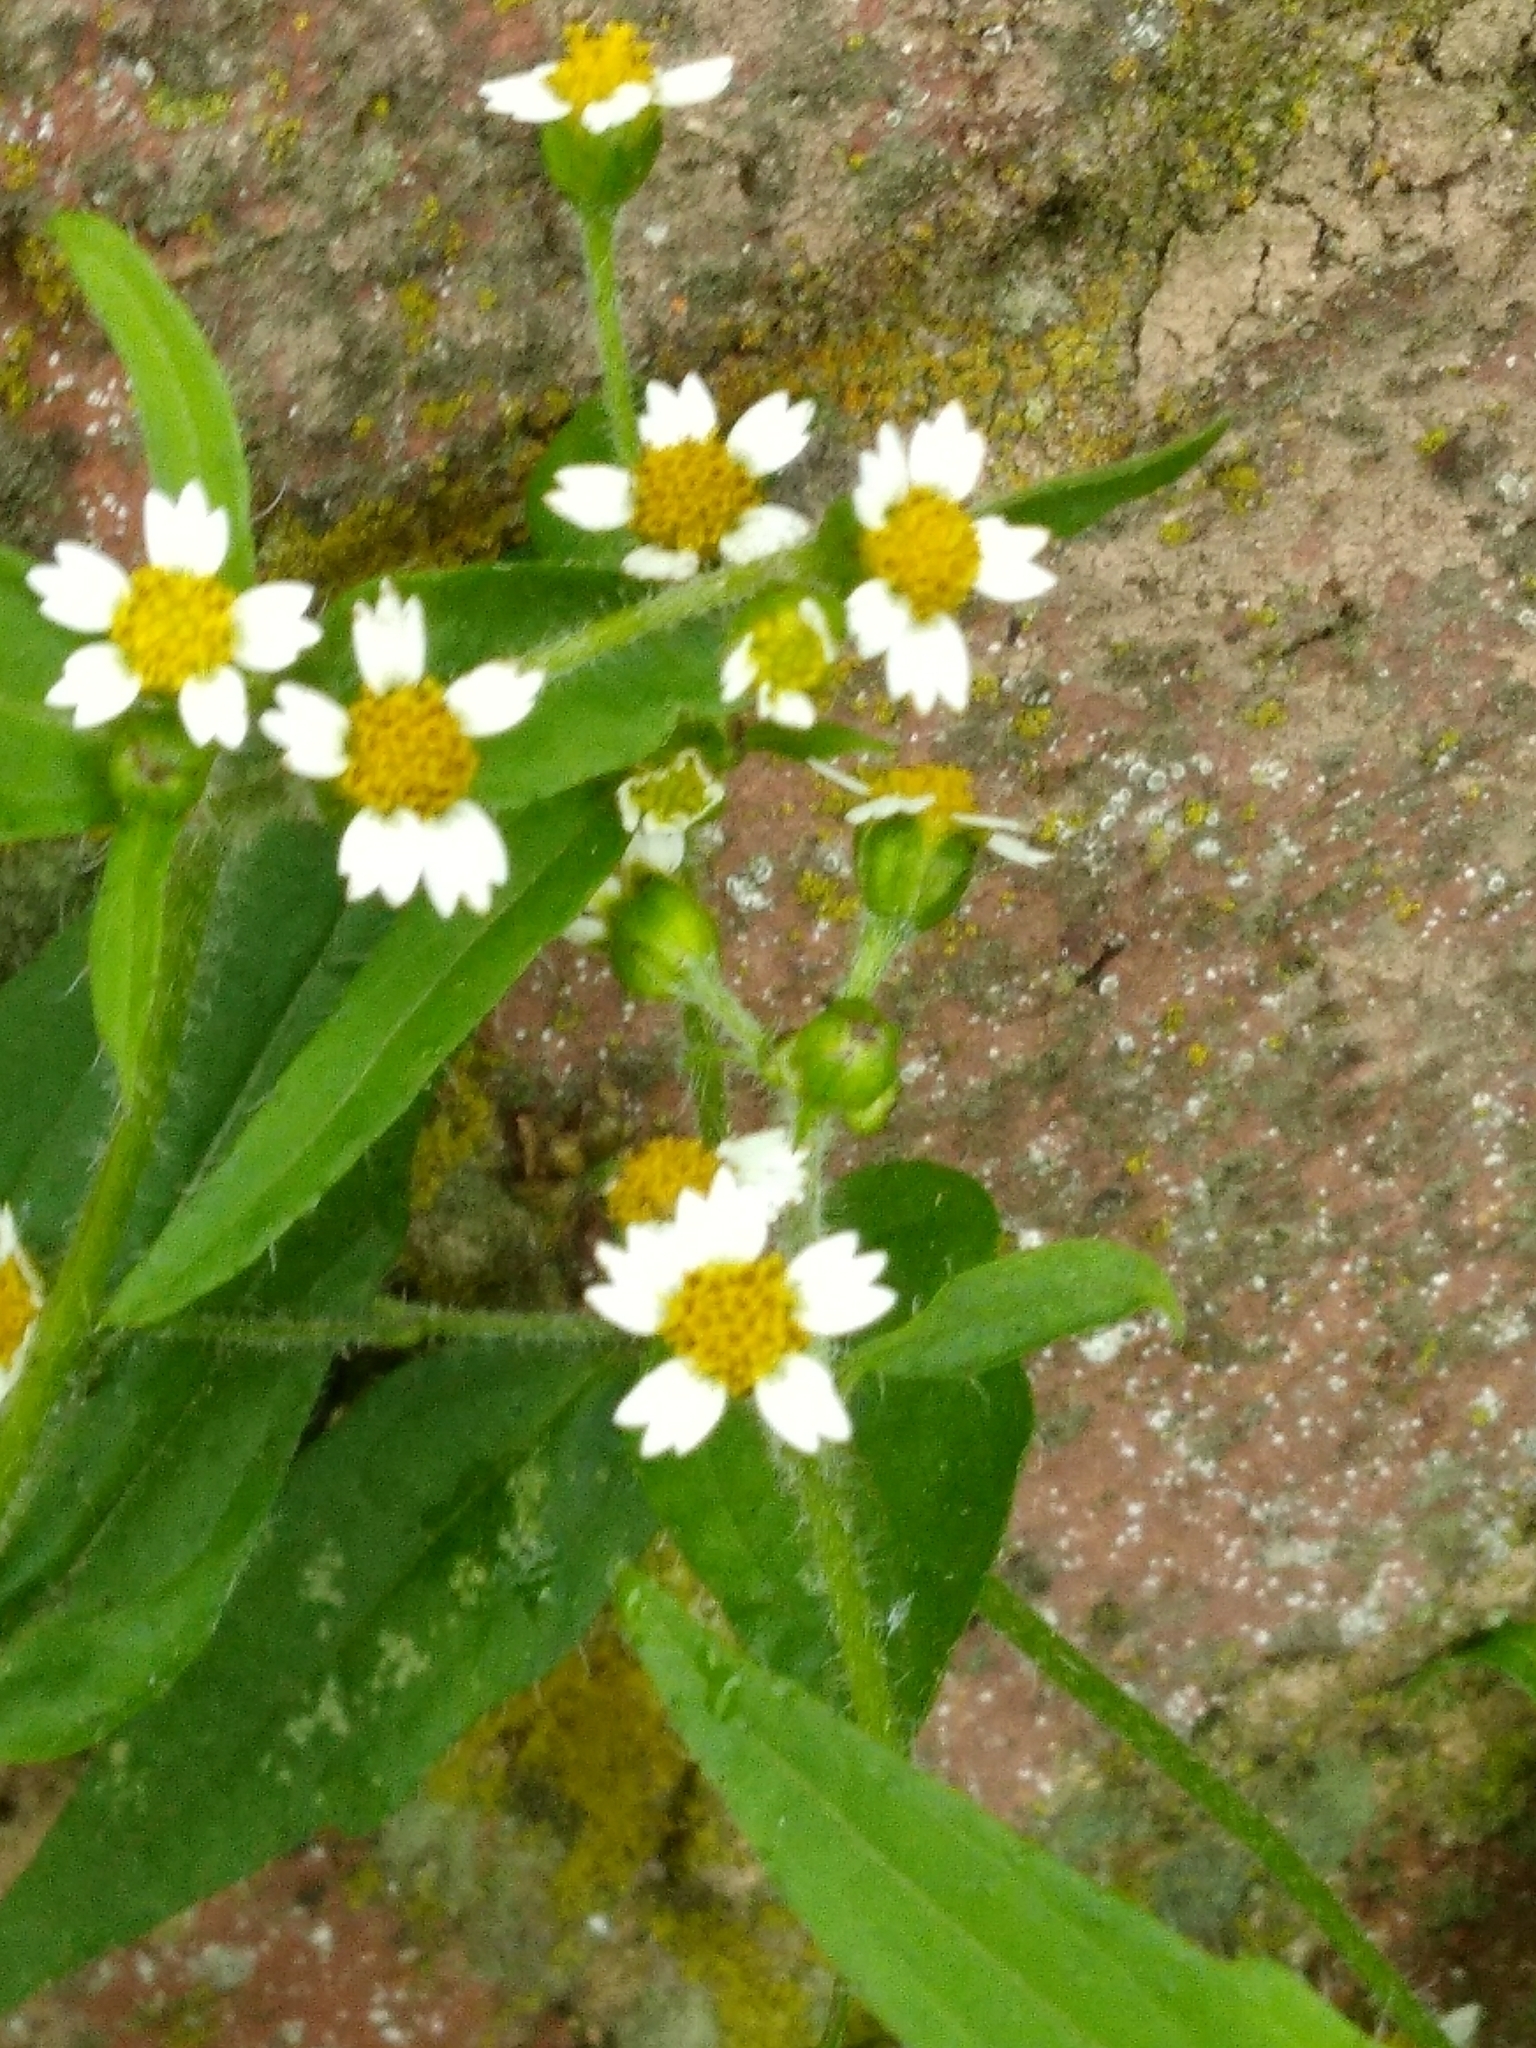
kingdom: Plantae
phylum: Tracheophyta
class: Magnoliopsida
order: Asterales
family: Asteraceae
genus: Galinsoga
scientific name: Galinsoga quadriradiata
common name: Shaggy soldier
